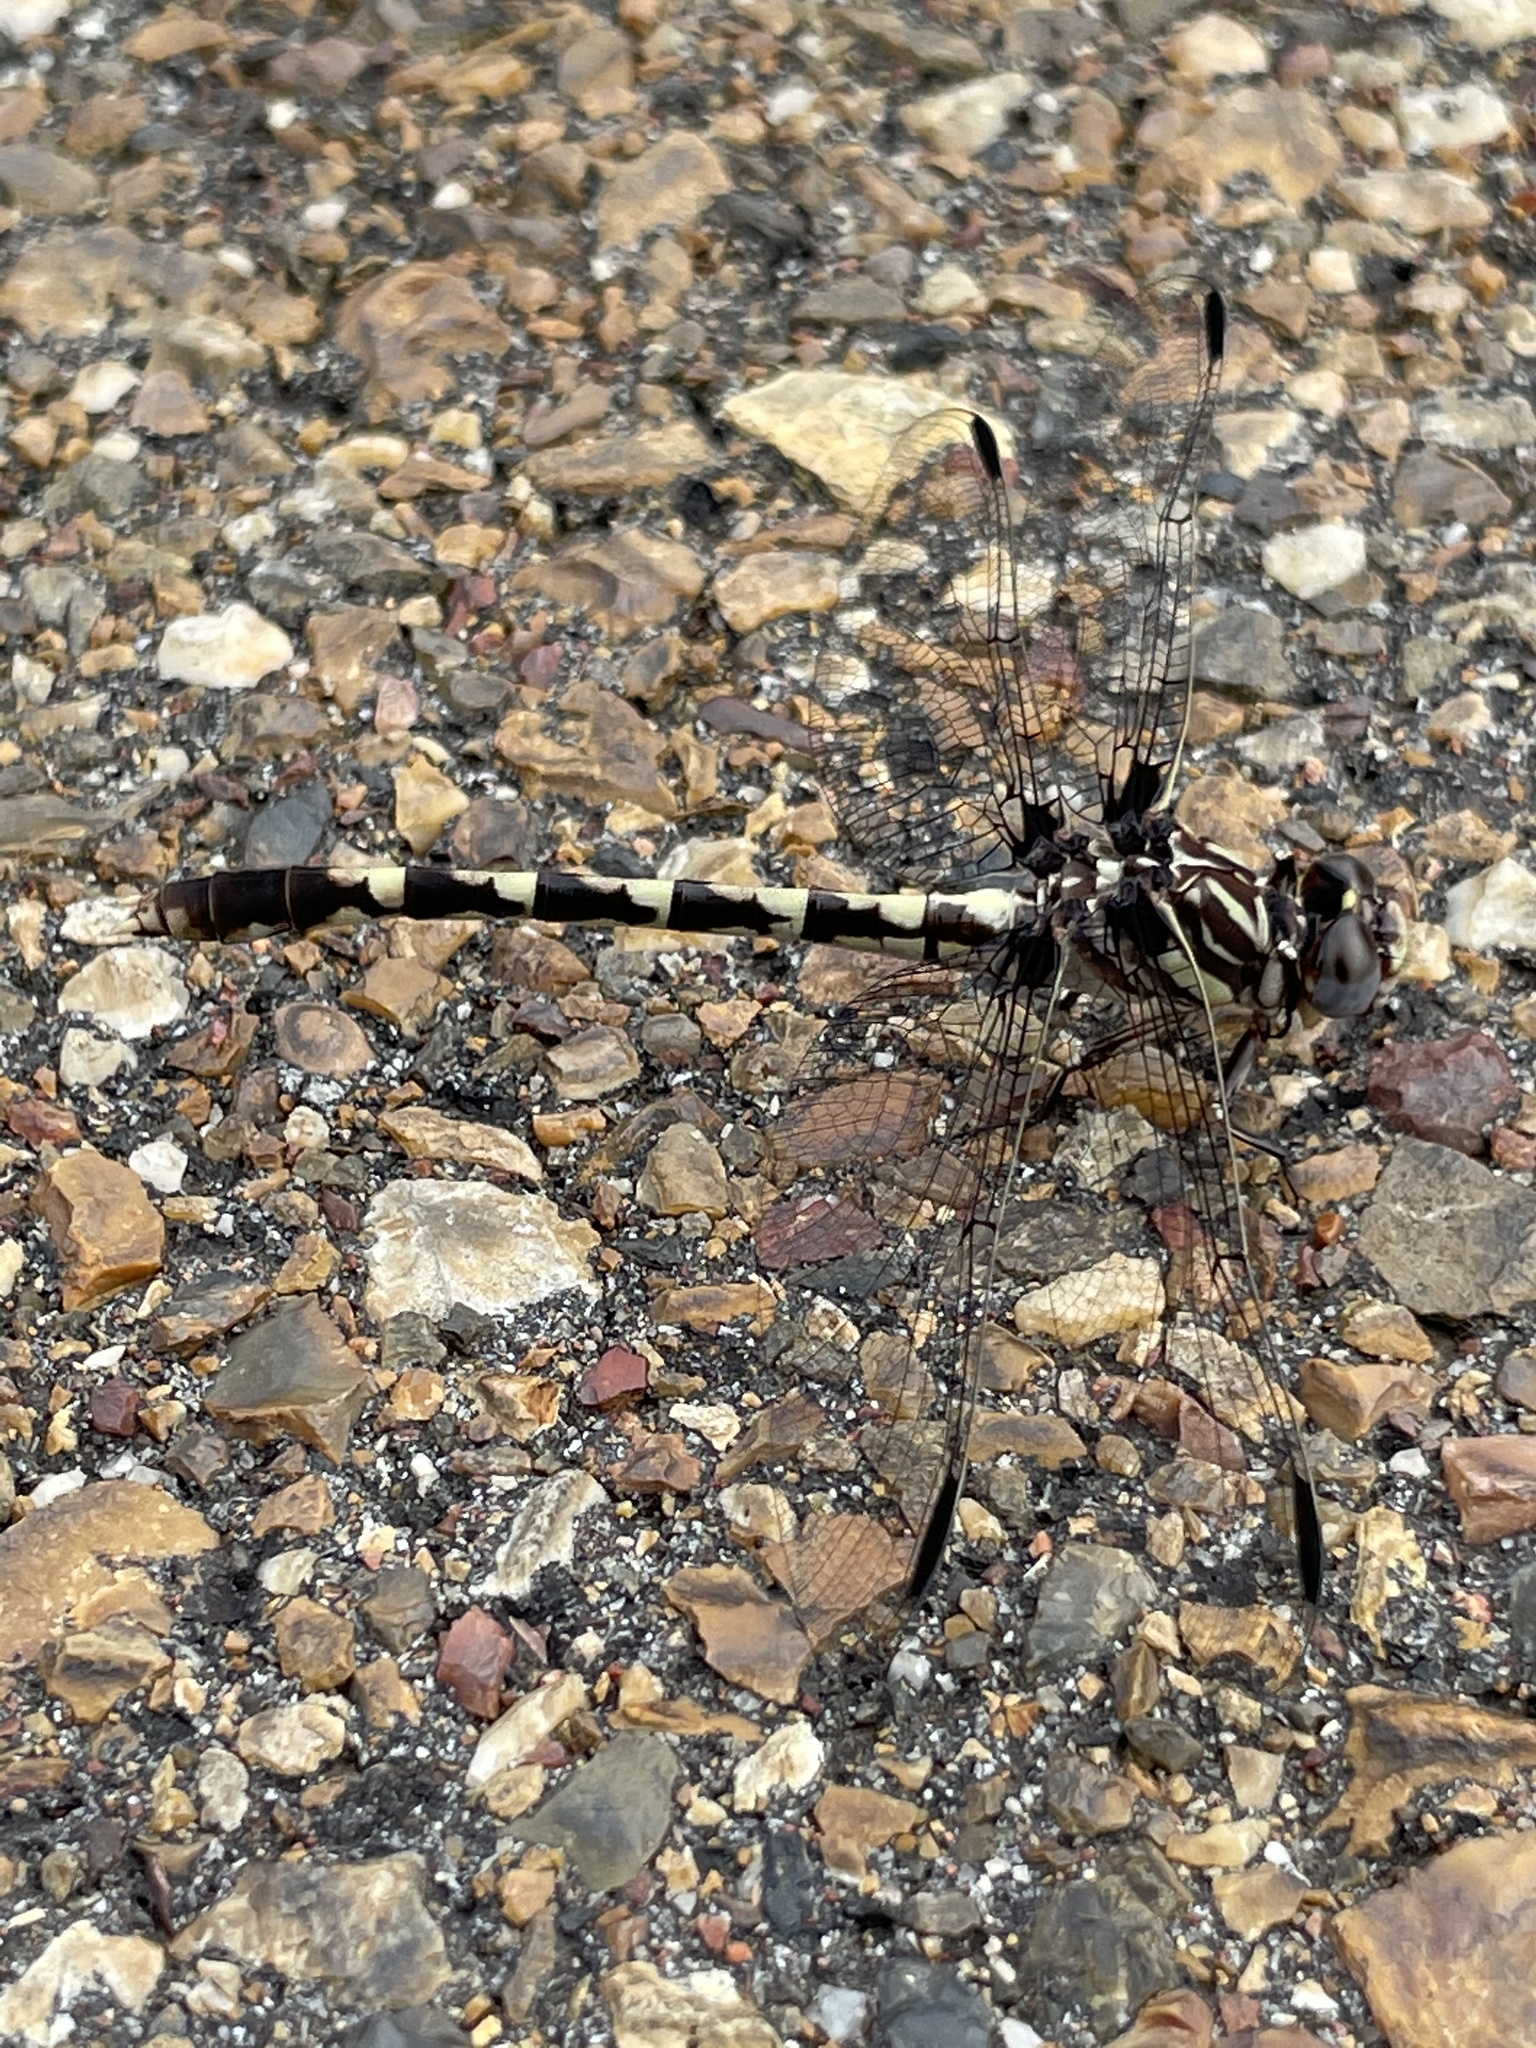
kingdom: Animalia
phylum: Arthropoda
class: Insecta
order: Odonata
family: Gomphidae
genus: Progomphus
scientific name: Progomphus obscurus
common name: Common sanddragon
